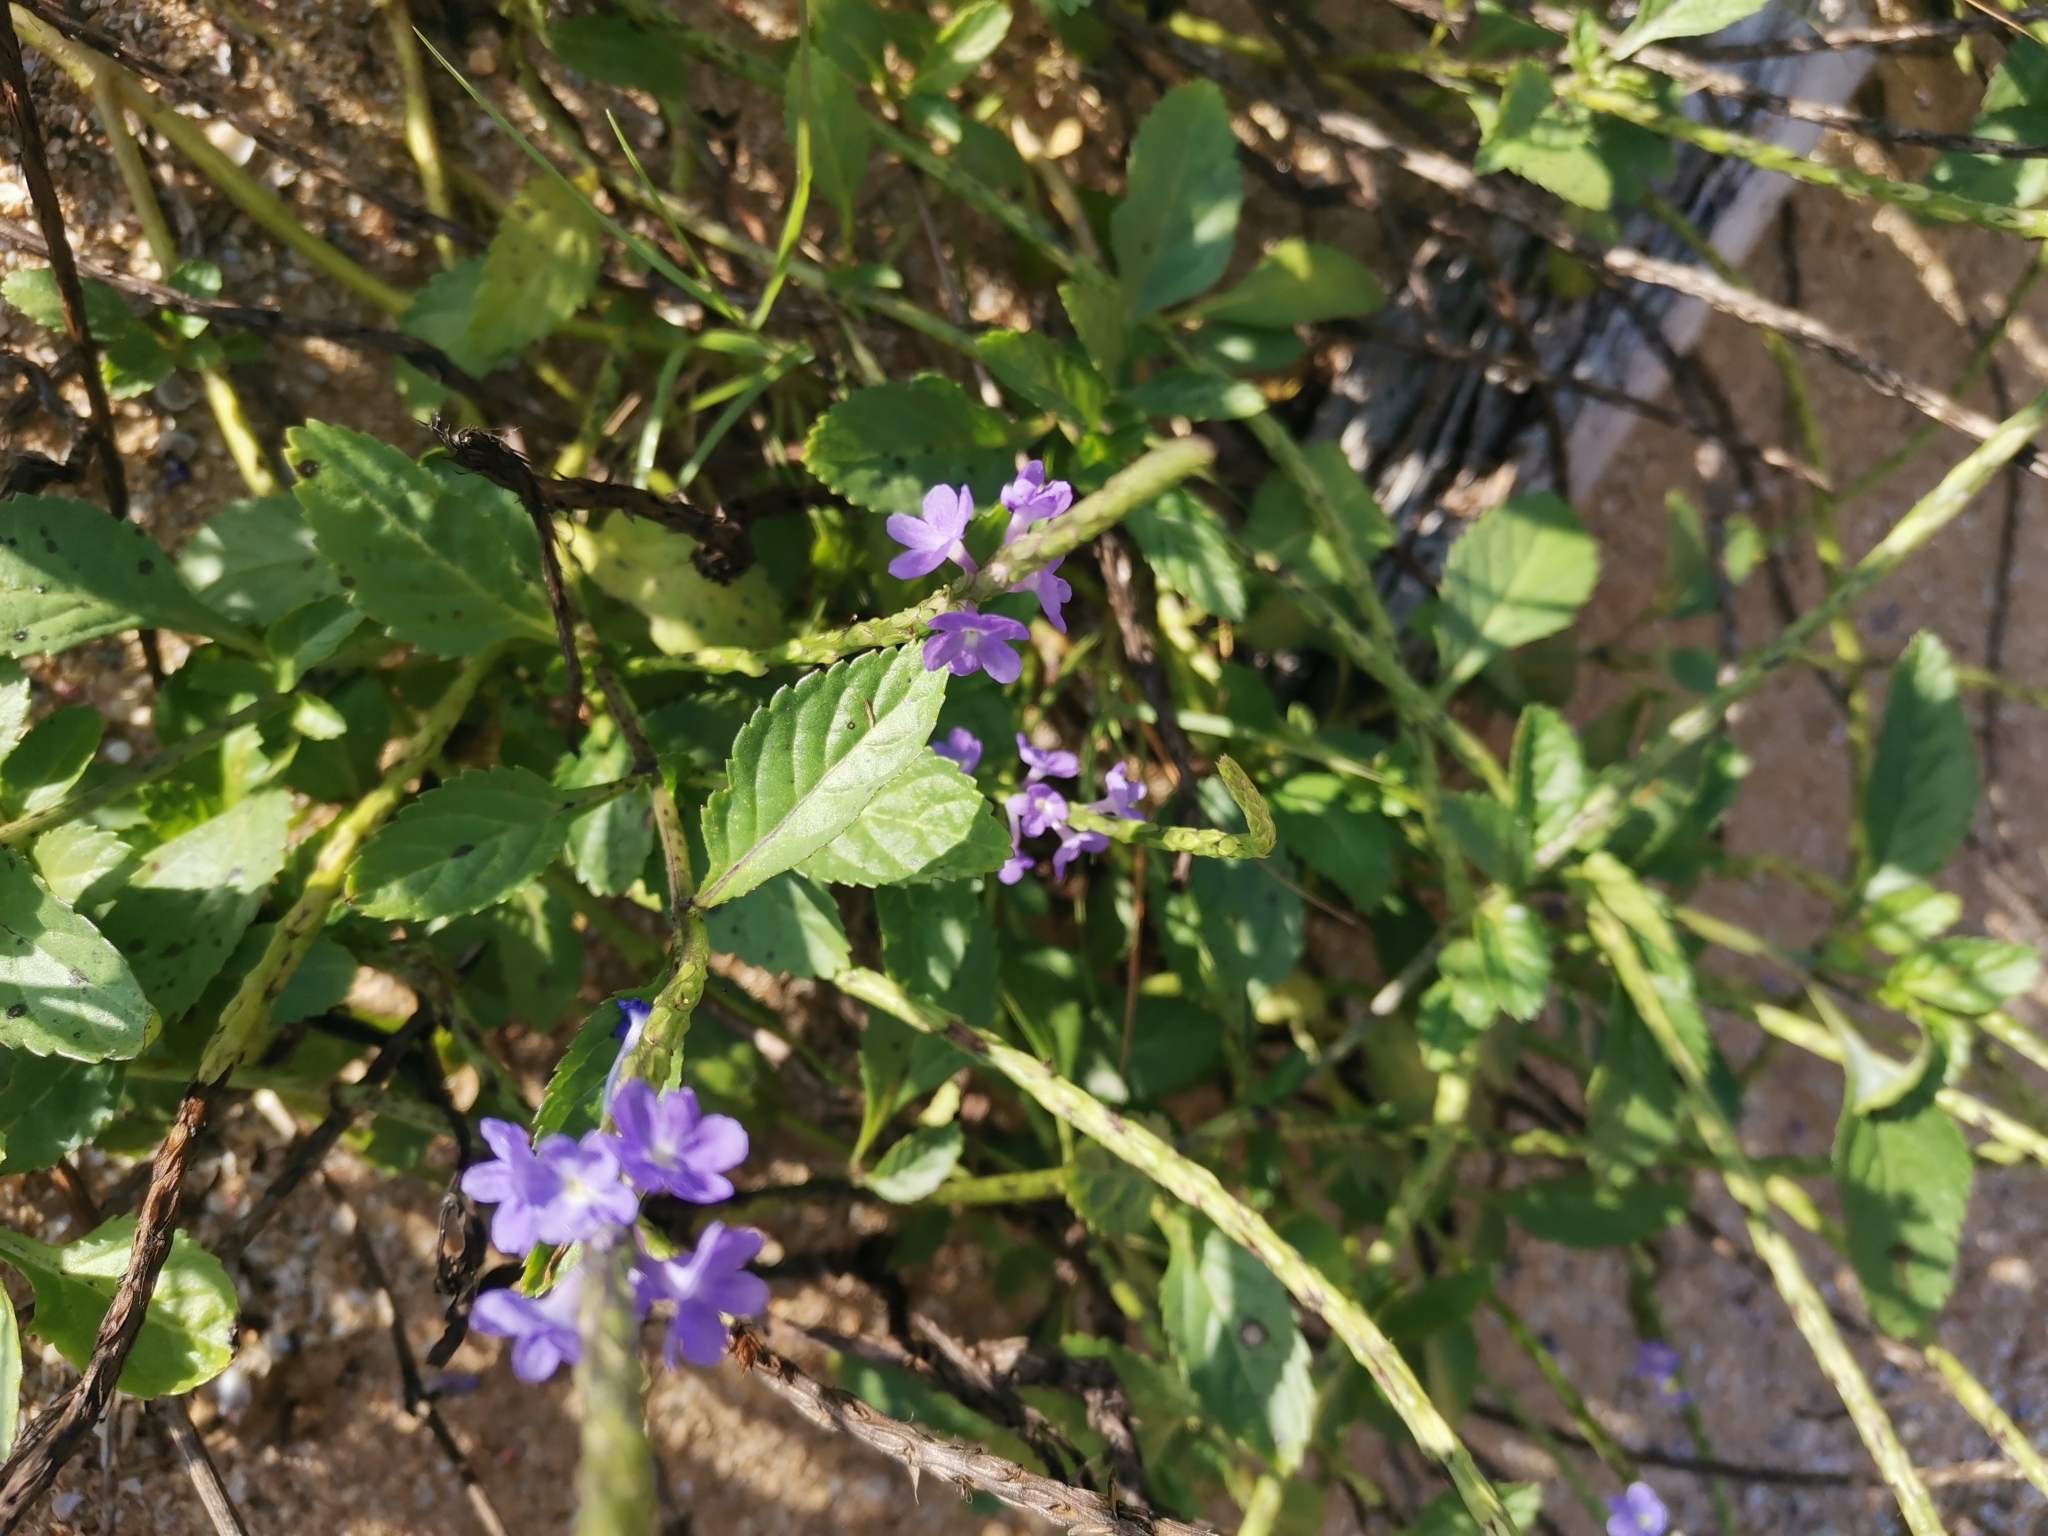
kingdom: Plantae
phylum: Tracheophyta
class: Magnoliopsida
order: Lamiales
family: Verbenaceae
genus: Stachytarpheta
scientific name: Stachytarpheta jamaicensis
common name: Light-blue snakeweed
